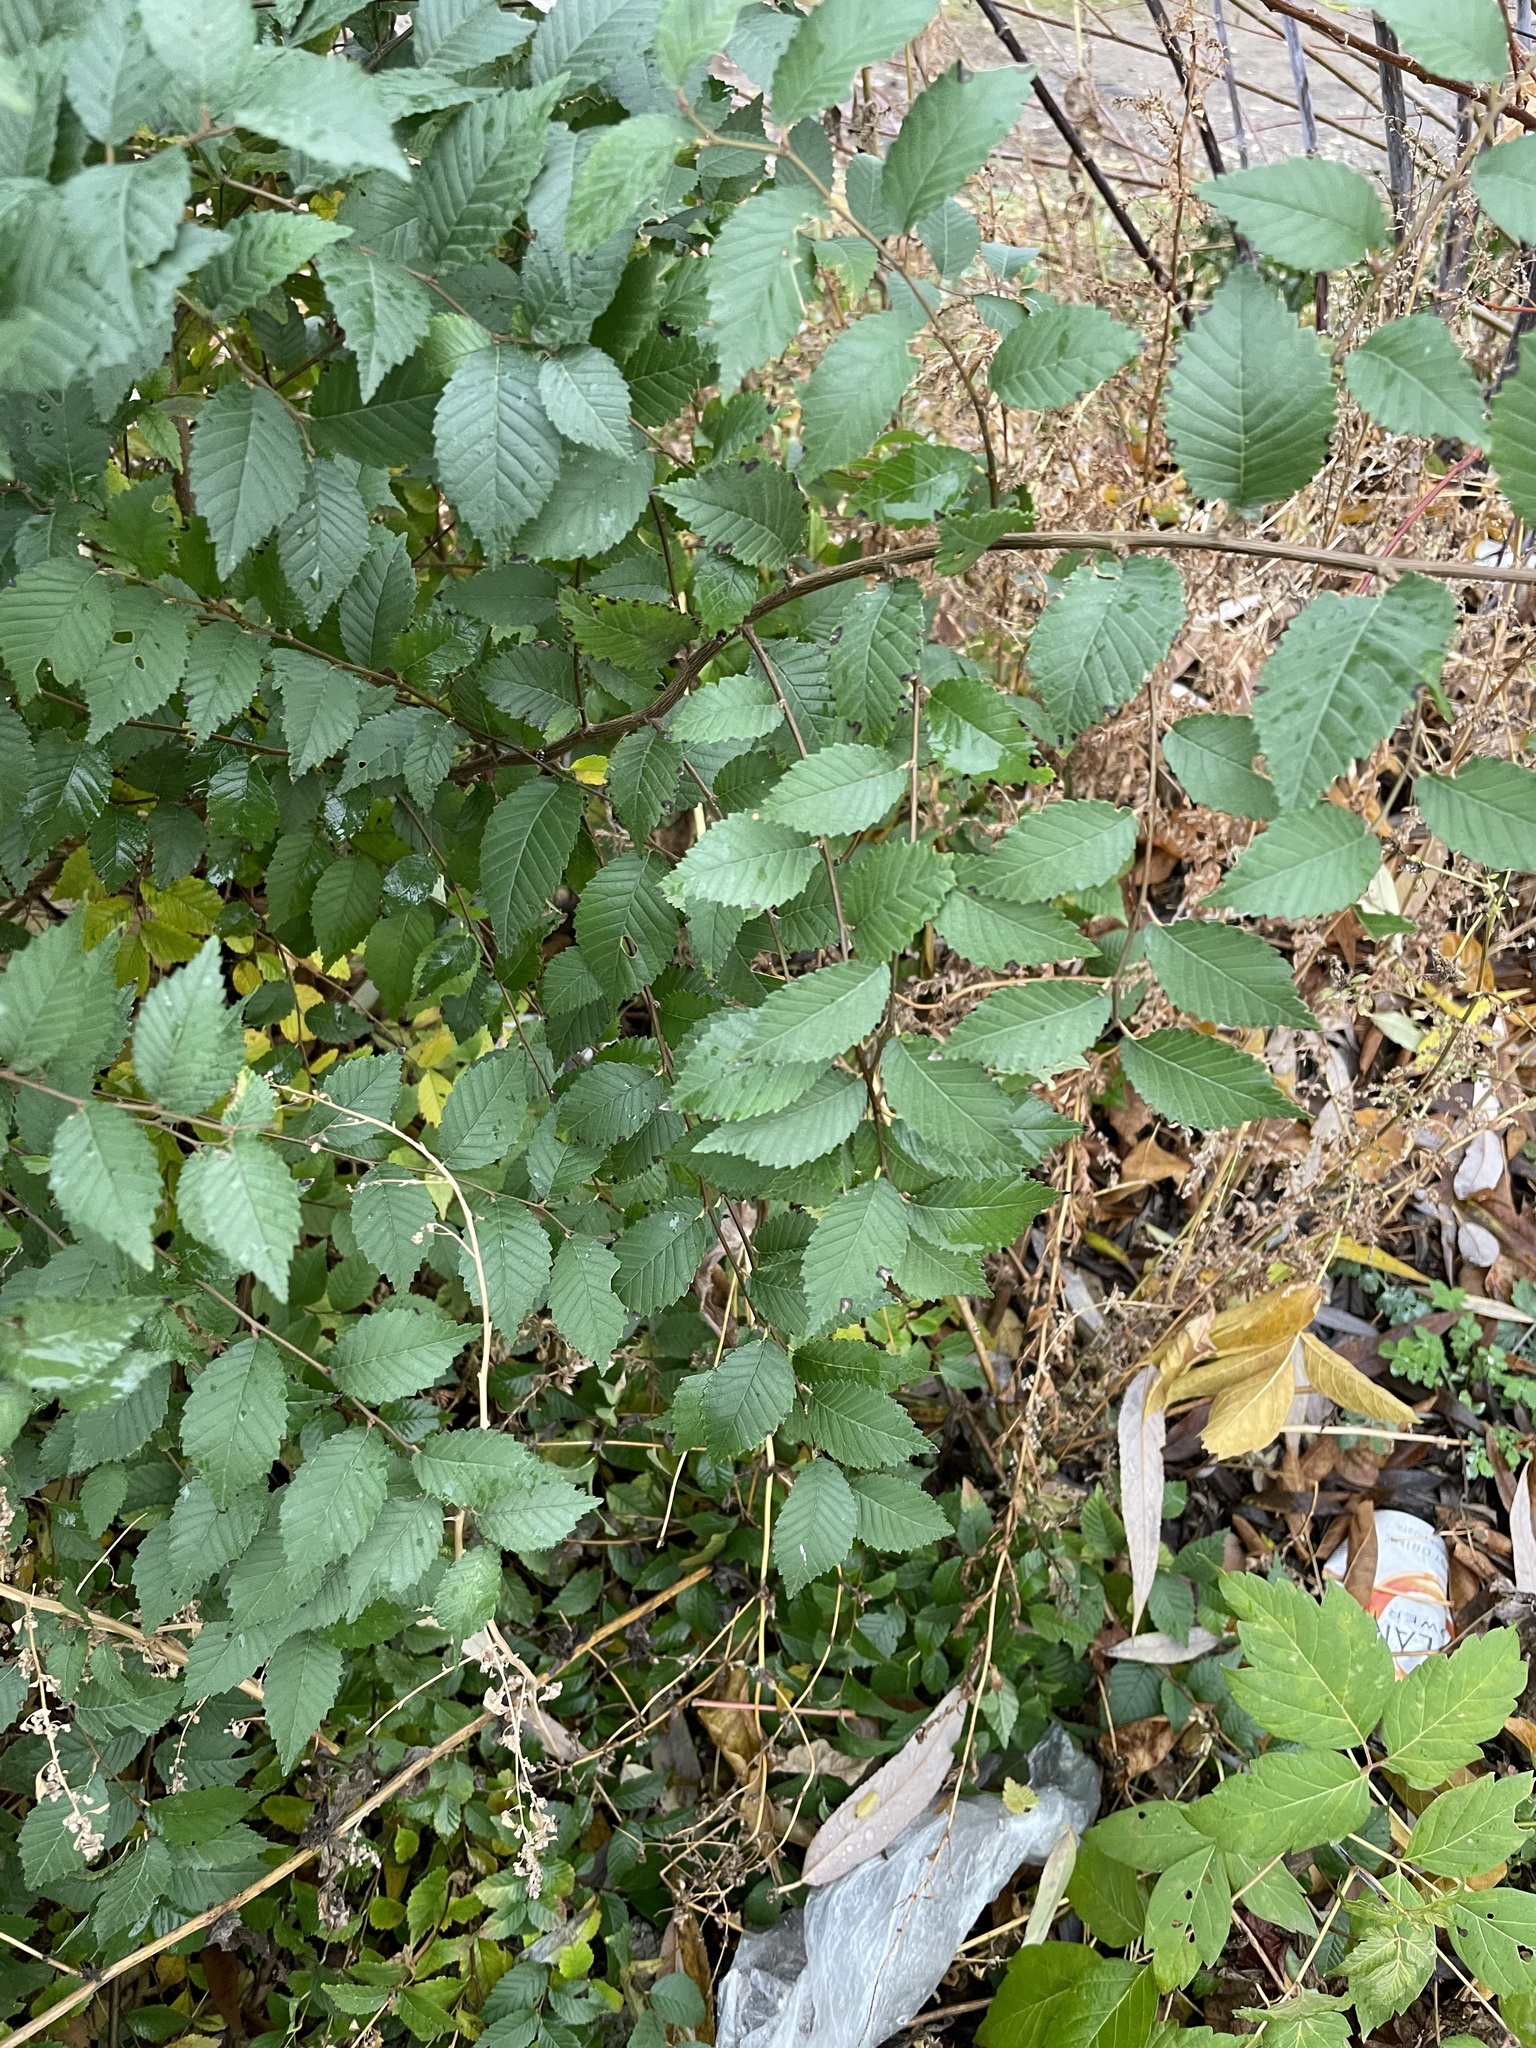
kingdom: Plantae
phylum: Tracheophyta
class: Magnoliopsida
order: Rosales
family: Ulmaceae
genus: Ulmus
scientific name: Ulmus pumila
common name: Siberian elm
